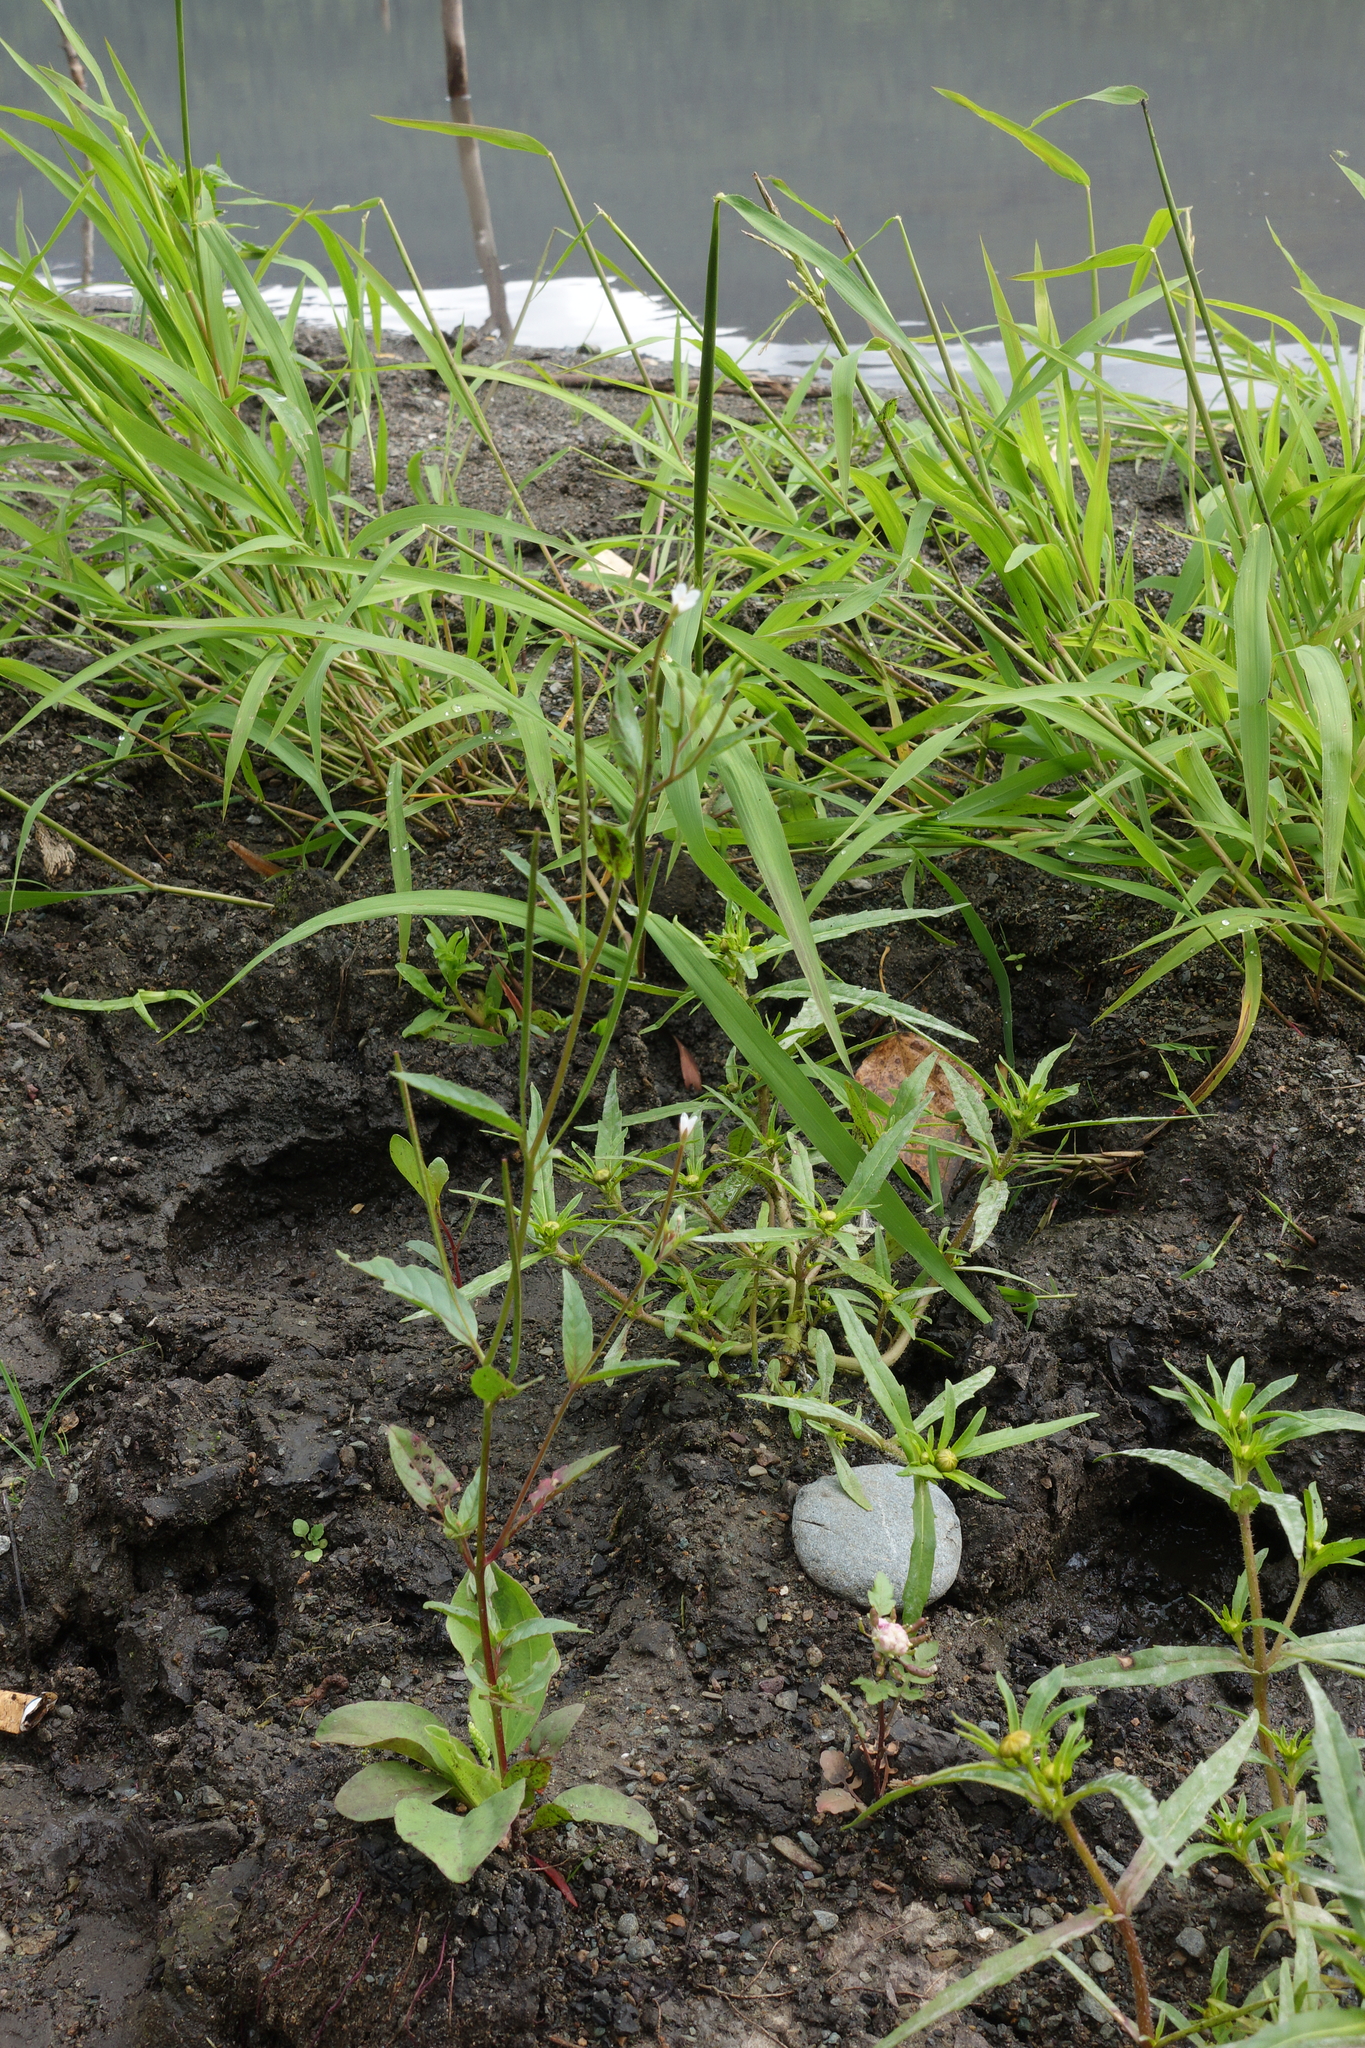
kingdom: Plantae
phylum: Tracheophyta
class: Magnoliopsida
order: Myrtales
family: Onagraceae
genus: Epilobium
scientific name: Epilobium pseudorubescens
